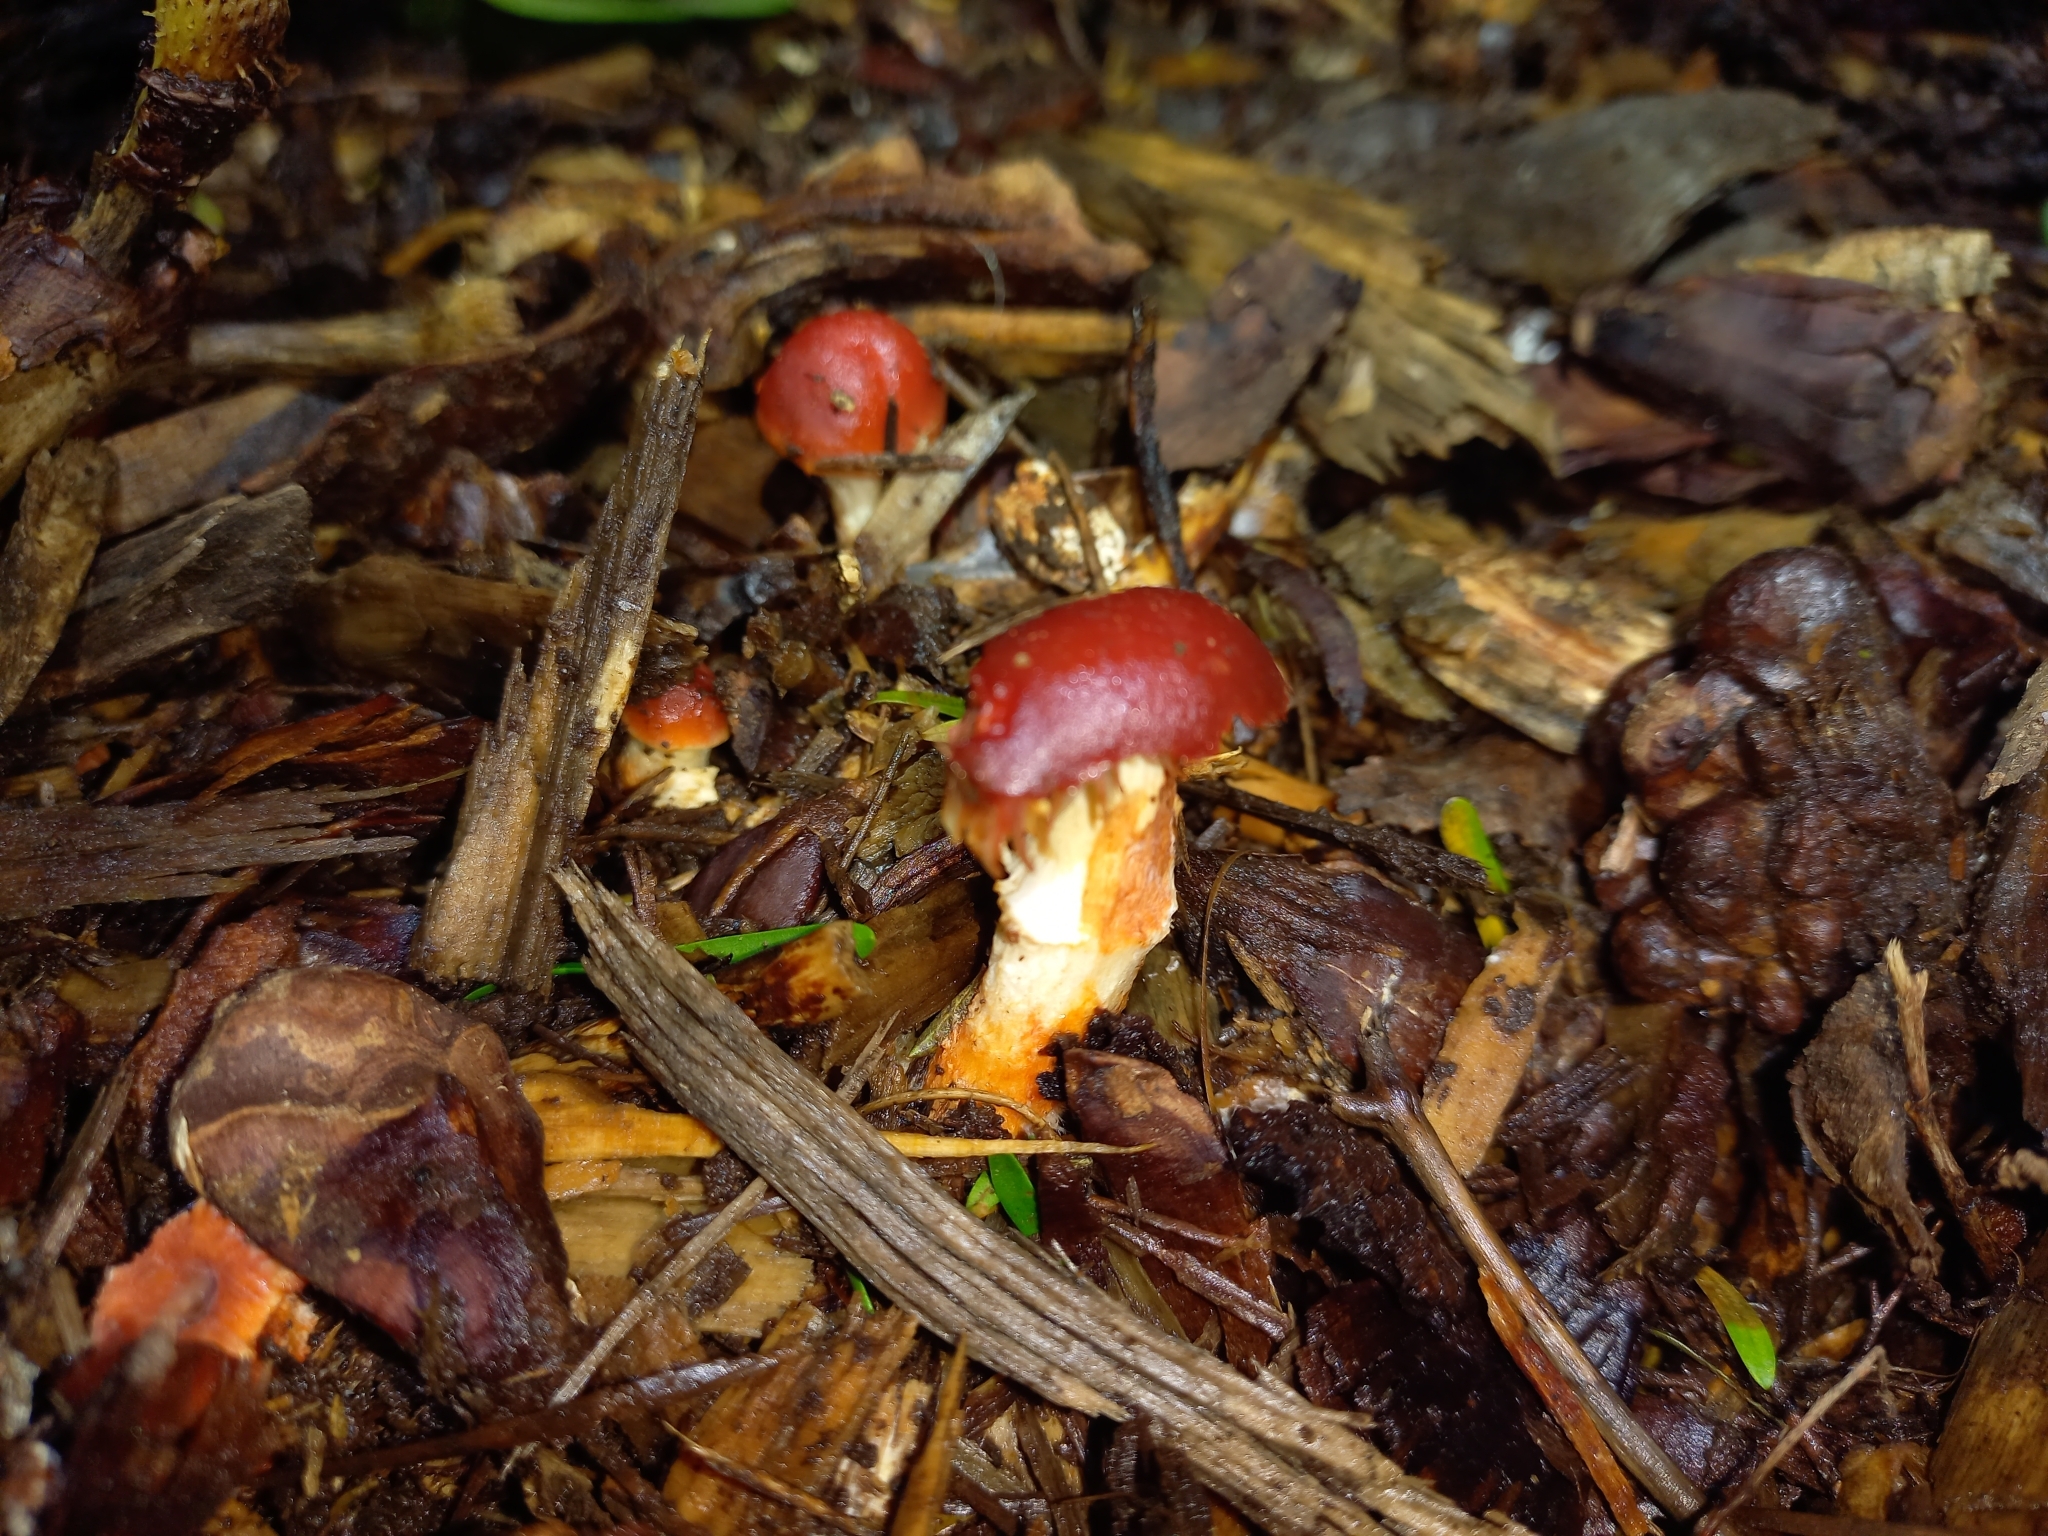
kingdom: Fungi
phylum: Basidiomycota
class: Agaricomycetes
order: Agaricales
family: Strophariaceae
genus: Leratiomyces
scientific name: Leratiomyces ceres
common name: Redlead roundhead
